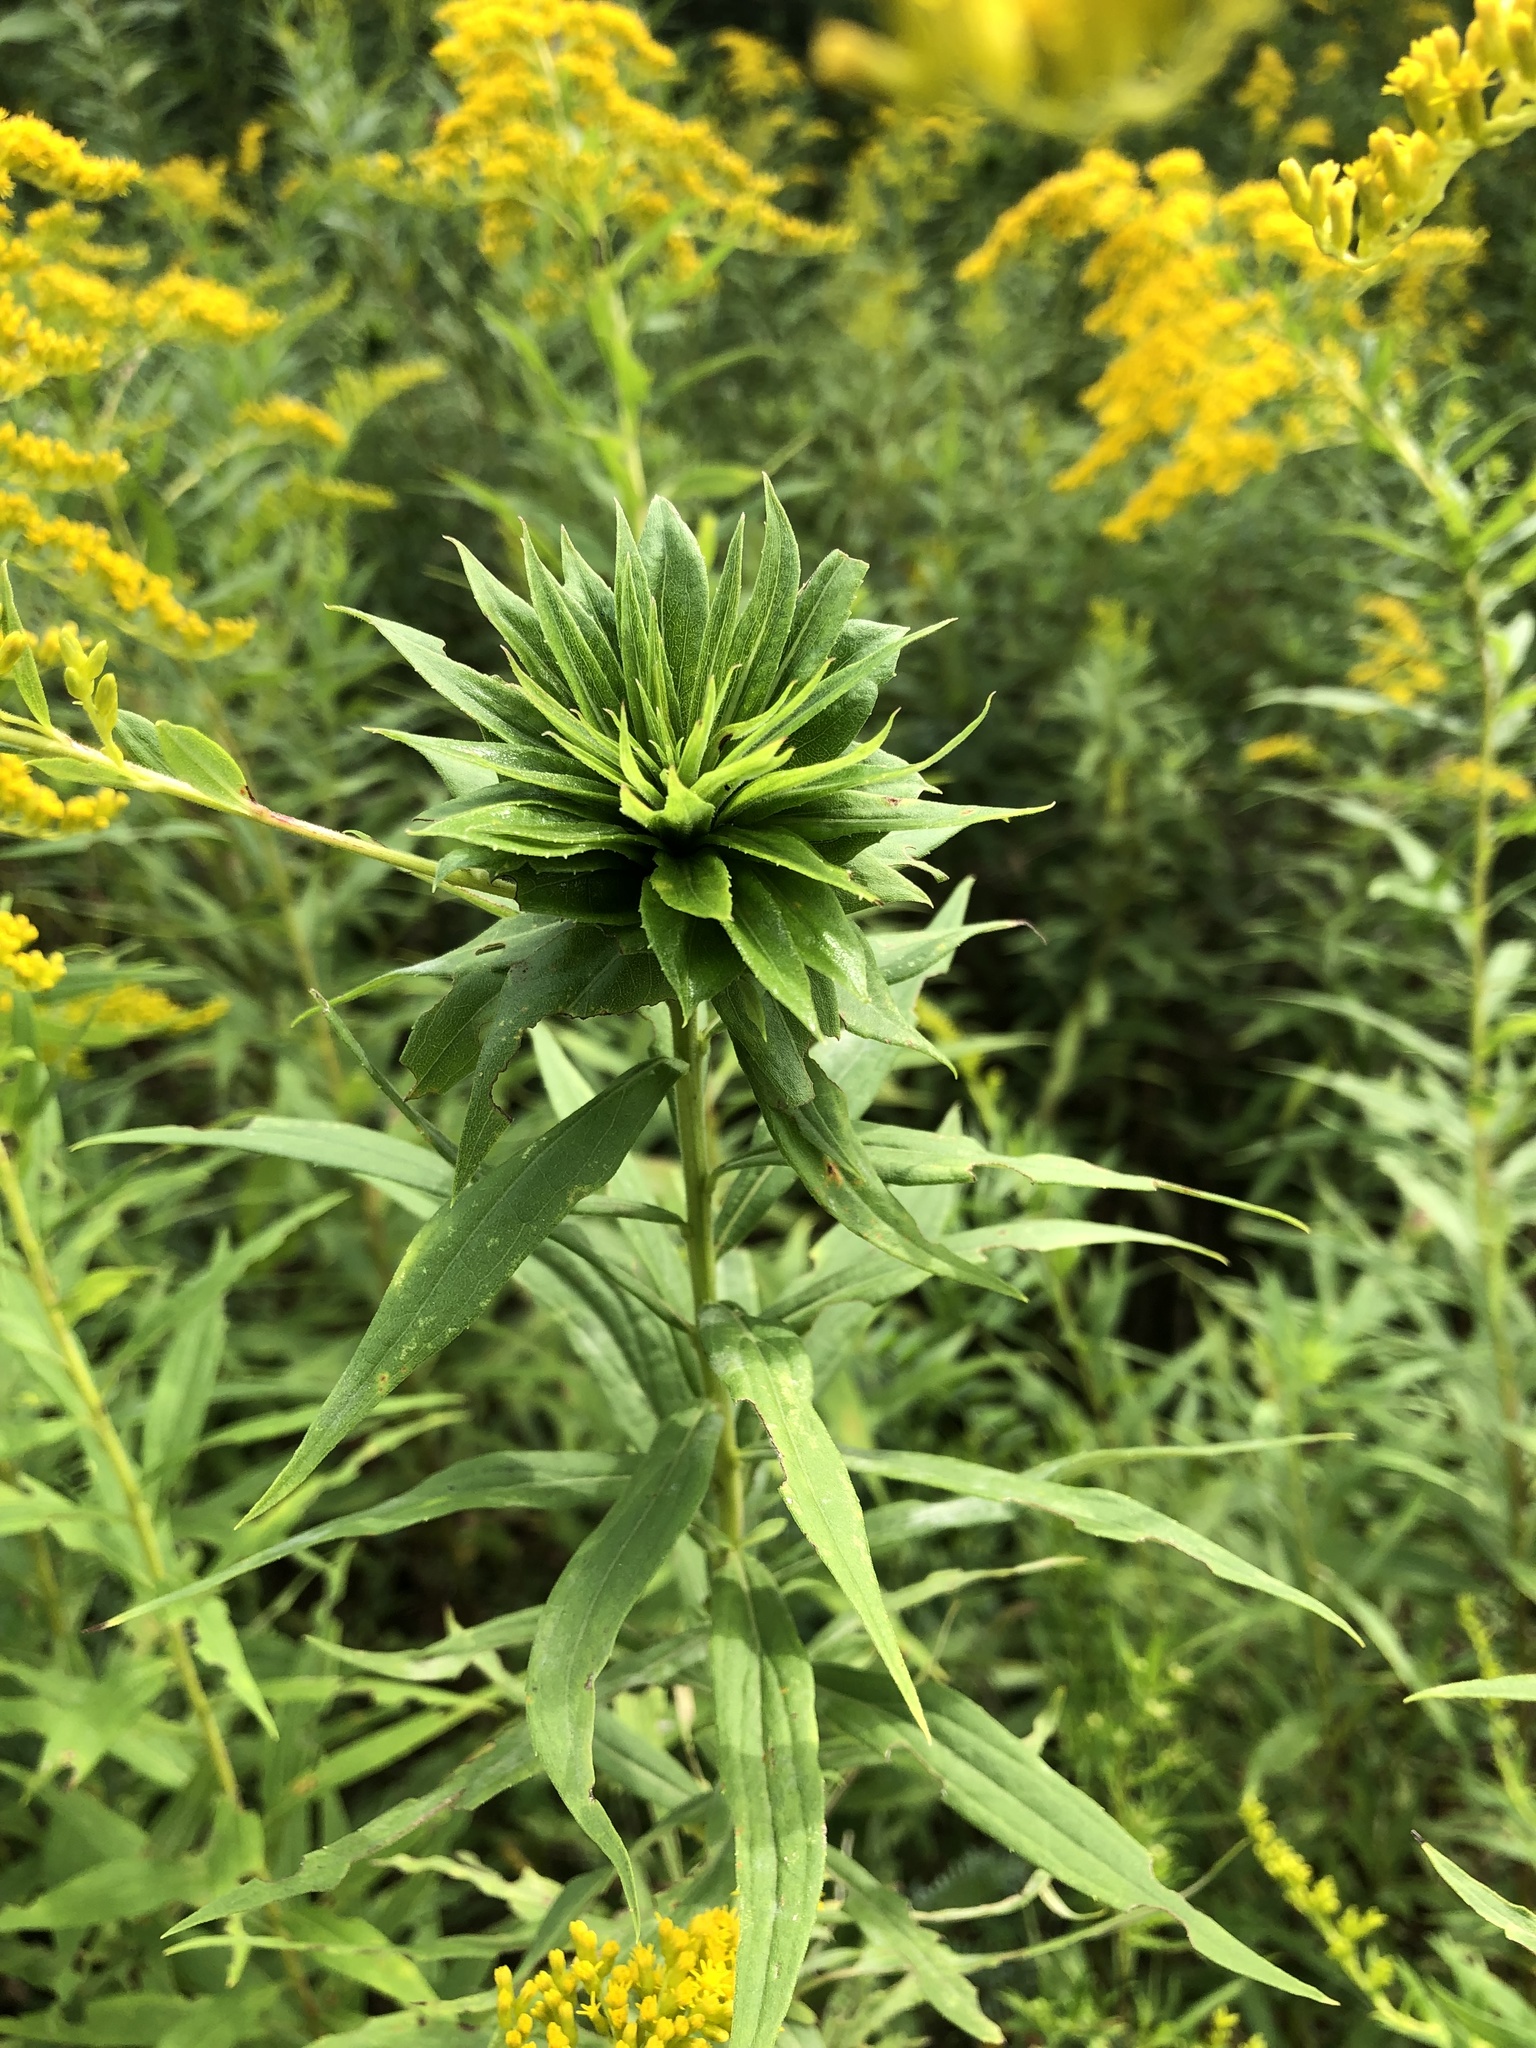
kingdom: Animalia
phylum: Arthropoda
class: Insecta
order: Diptera
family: Cecidomyiidae
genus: Rhopalomyia
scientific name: Rhopalomyia solidaginis
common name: Goldenrod bunch gall midge
